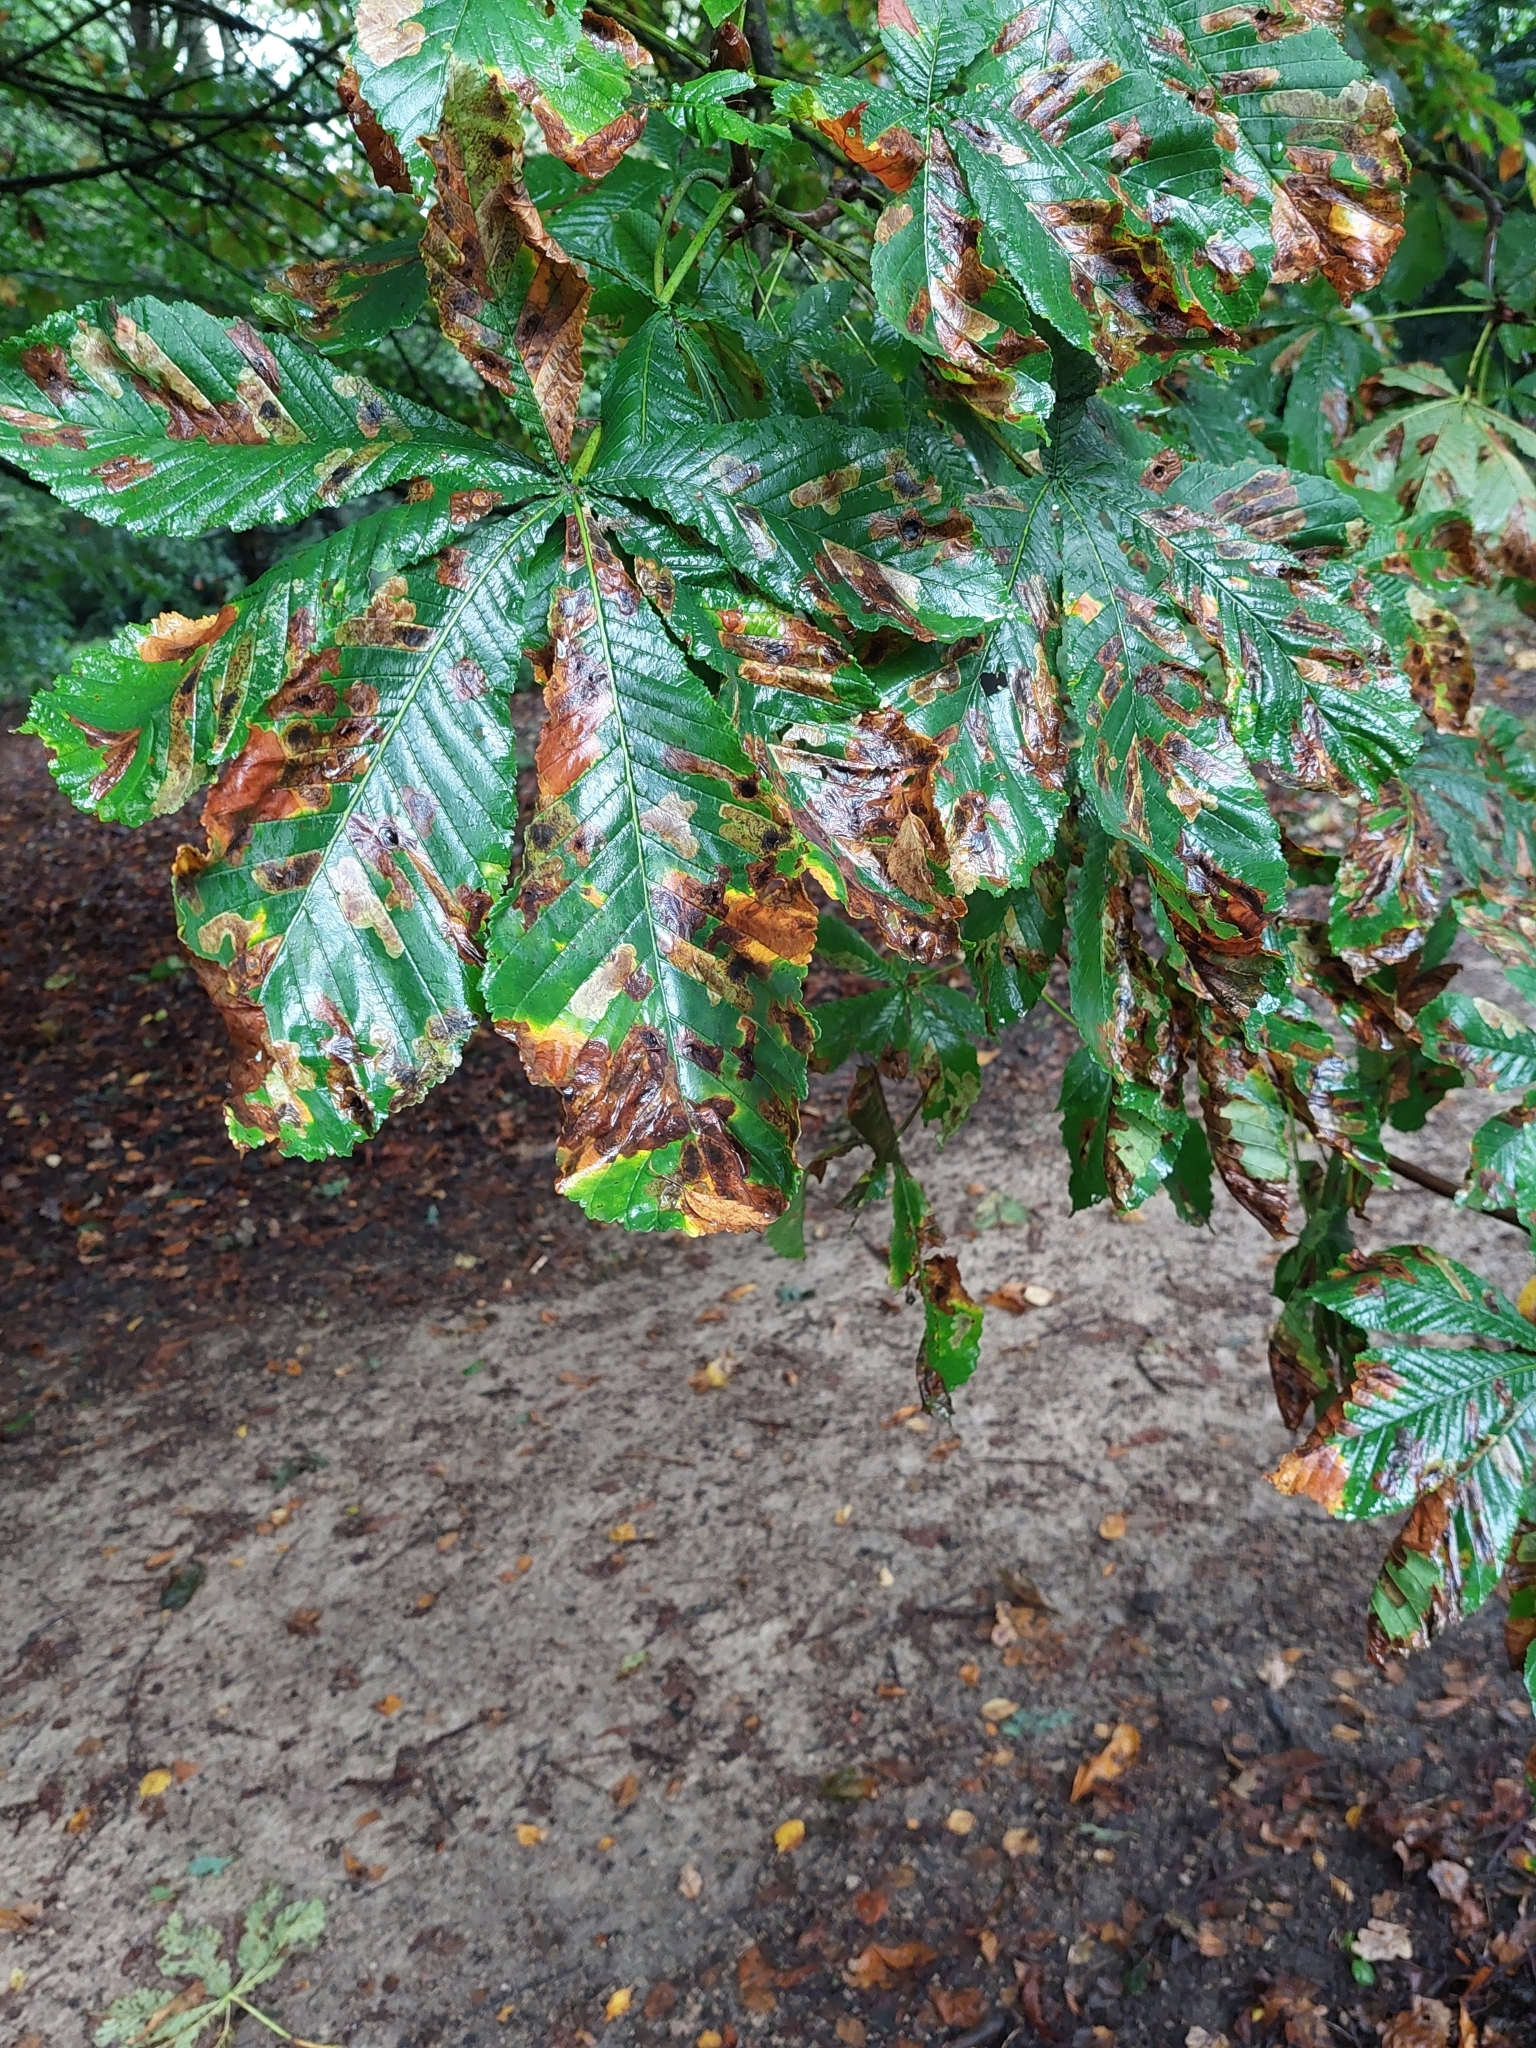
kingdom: Plantae
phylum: Tracheophyta
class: Magnoliopsida
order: Sapindales
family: Sapindaceae
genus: Aesculus
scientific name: Aesculus hippocastanum
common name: Horse-chestnut
